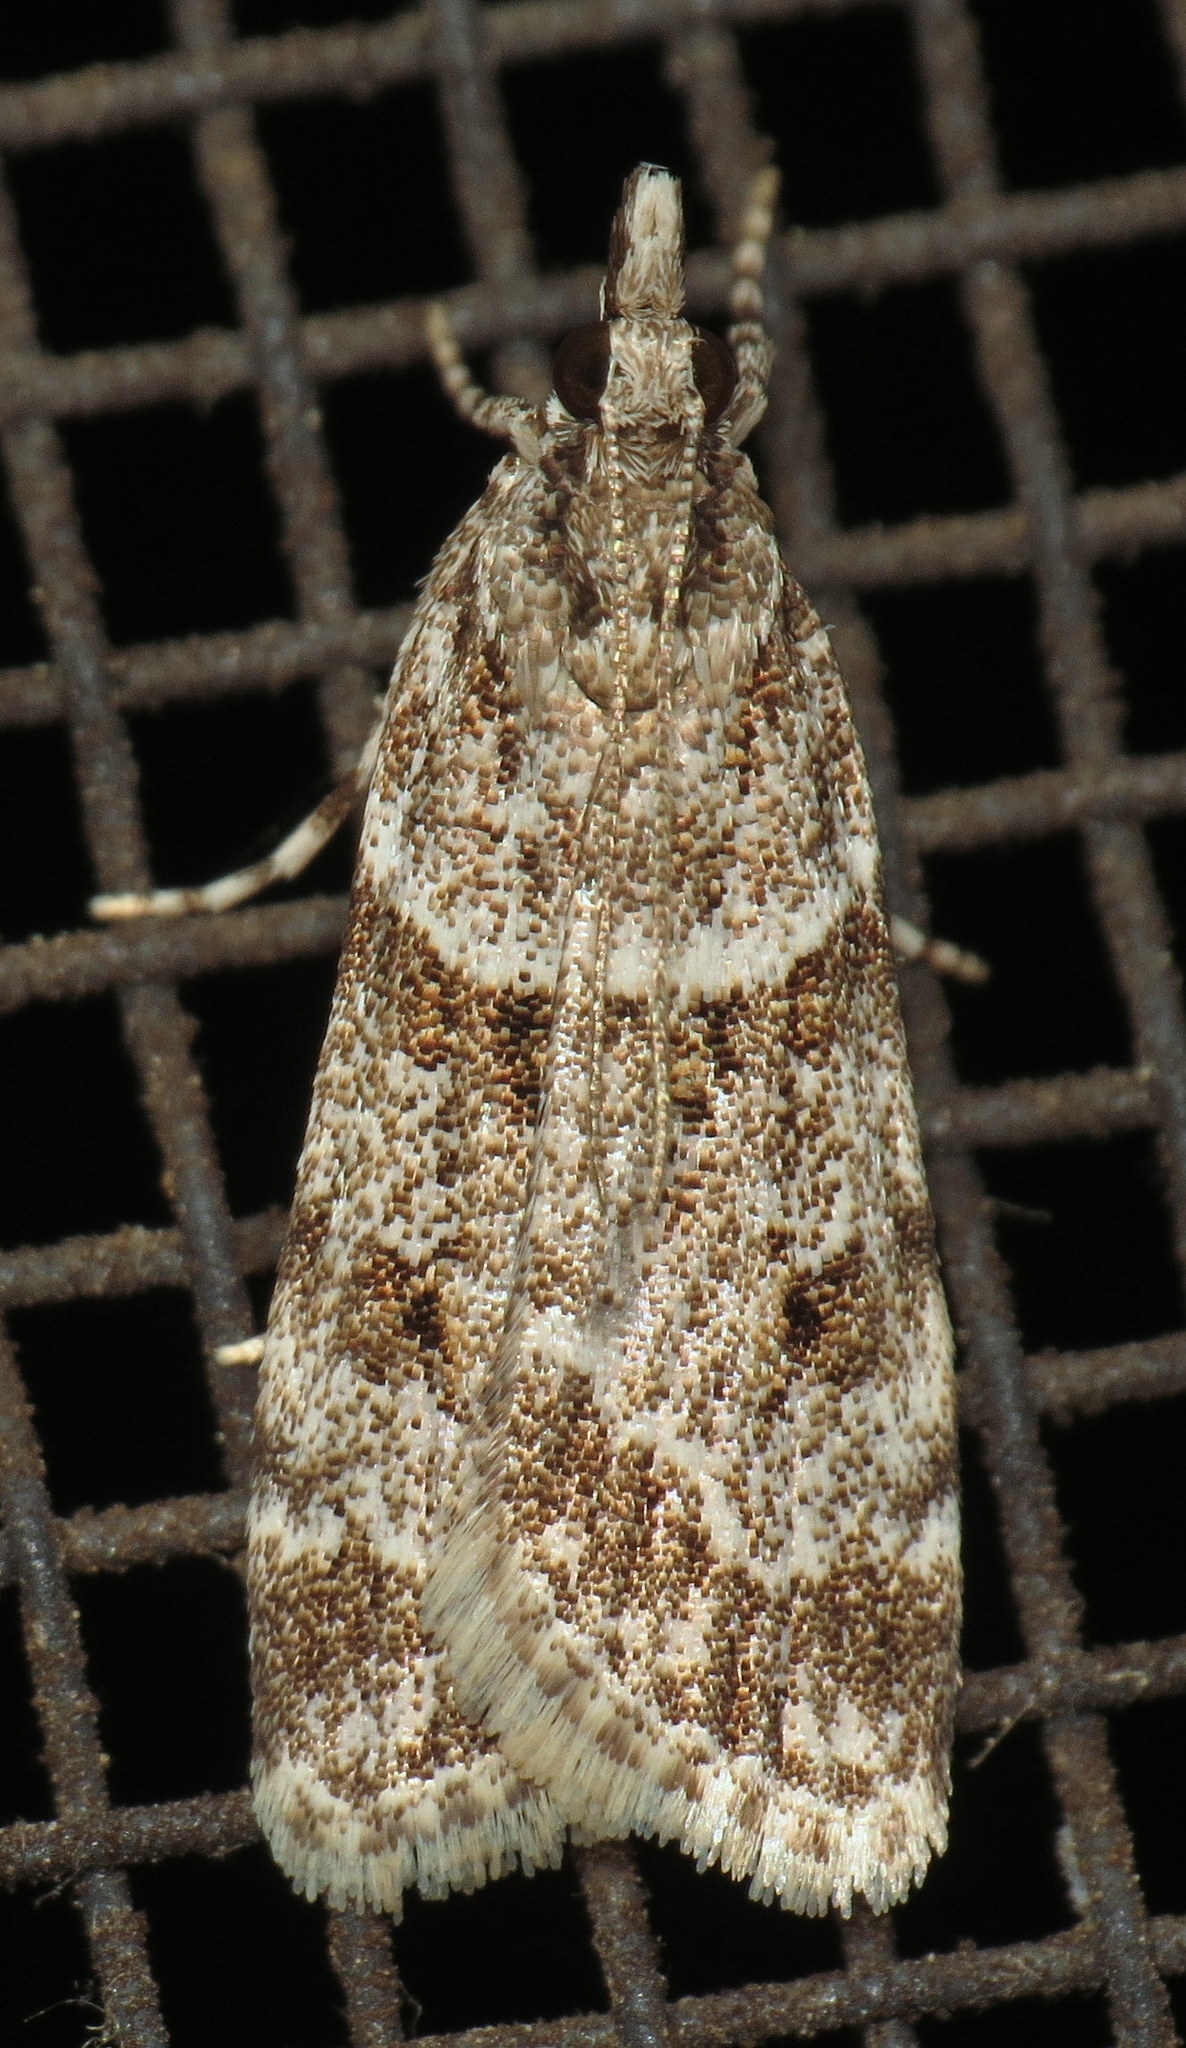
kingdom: Animalia
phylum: Arthropoda
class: Insecta
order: Lepidoptera
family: Crambidae
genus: Scoparia
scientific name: Scoparia biplagialis
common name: Double-striped scoparia moth
